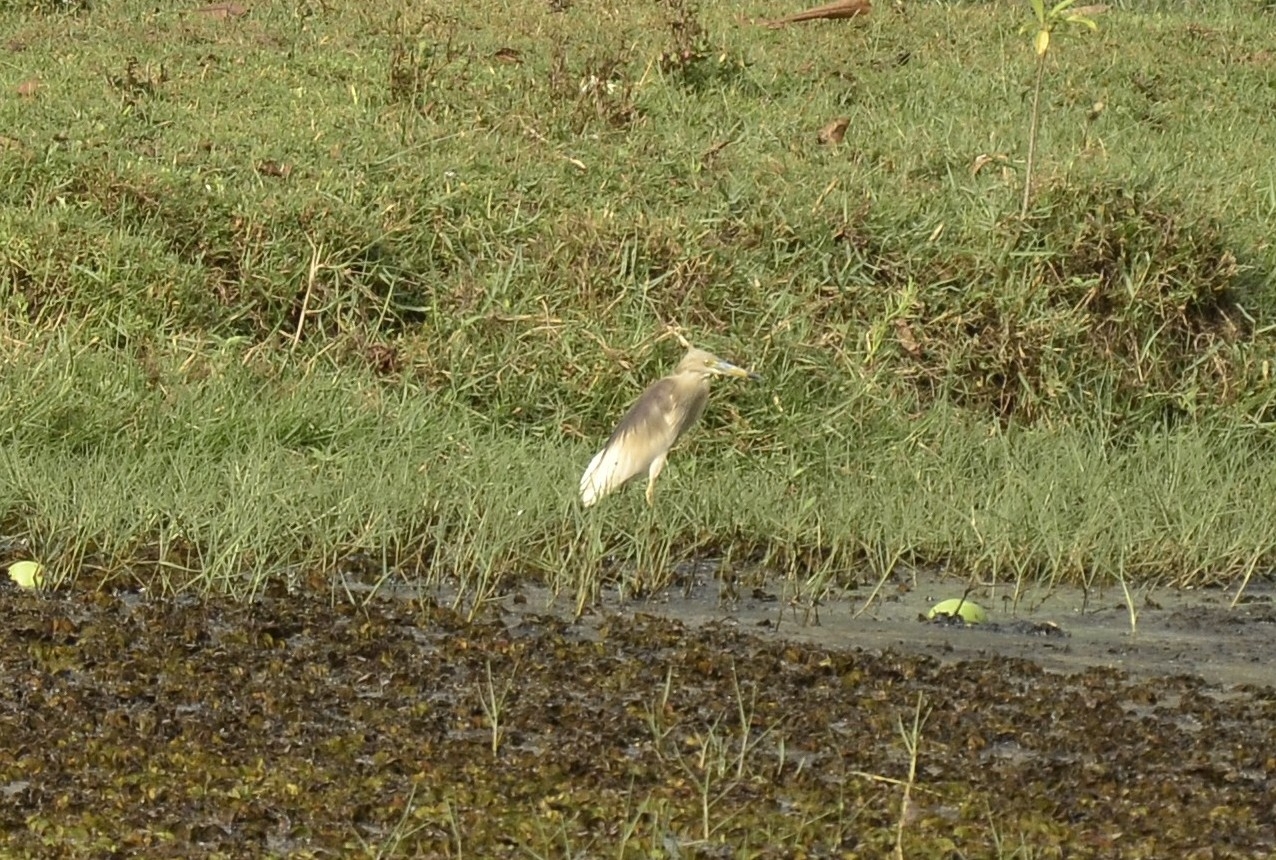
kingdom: Animalia
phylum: Chordata
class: Aves
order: Pelecaniformes
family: Ardeidae
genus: Ardeola
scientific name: Ardeola grayii
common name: Indian pond heron
